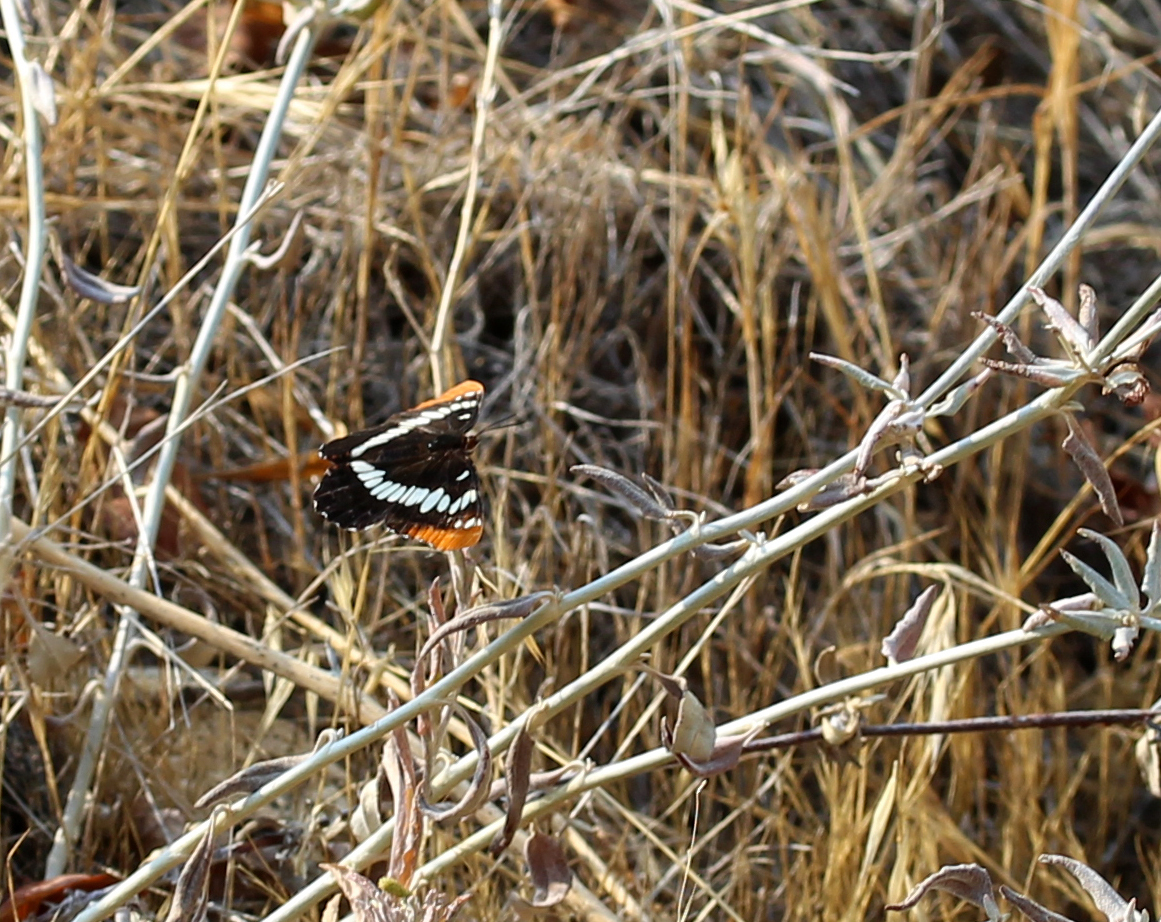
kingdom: Animalia
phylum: Arthropoda
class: Insecta
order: Lepidoptera
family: Nymphalidae
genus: Limenitis
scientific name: Limenitis lorquini
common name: Lorquin's admiral
